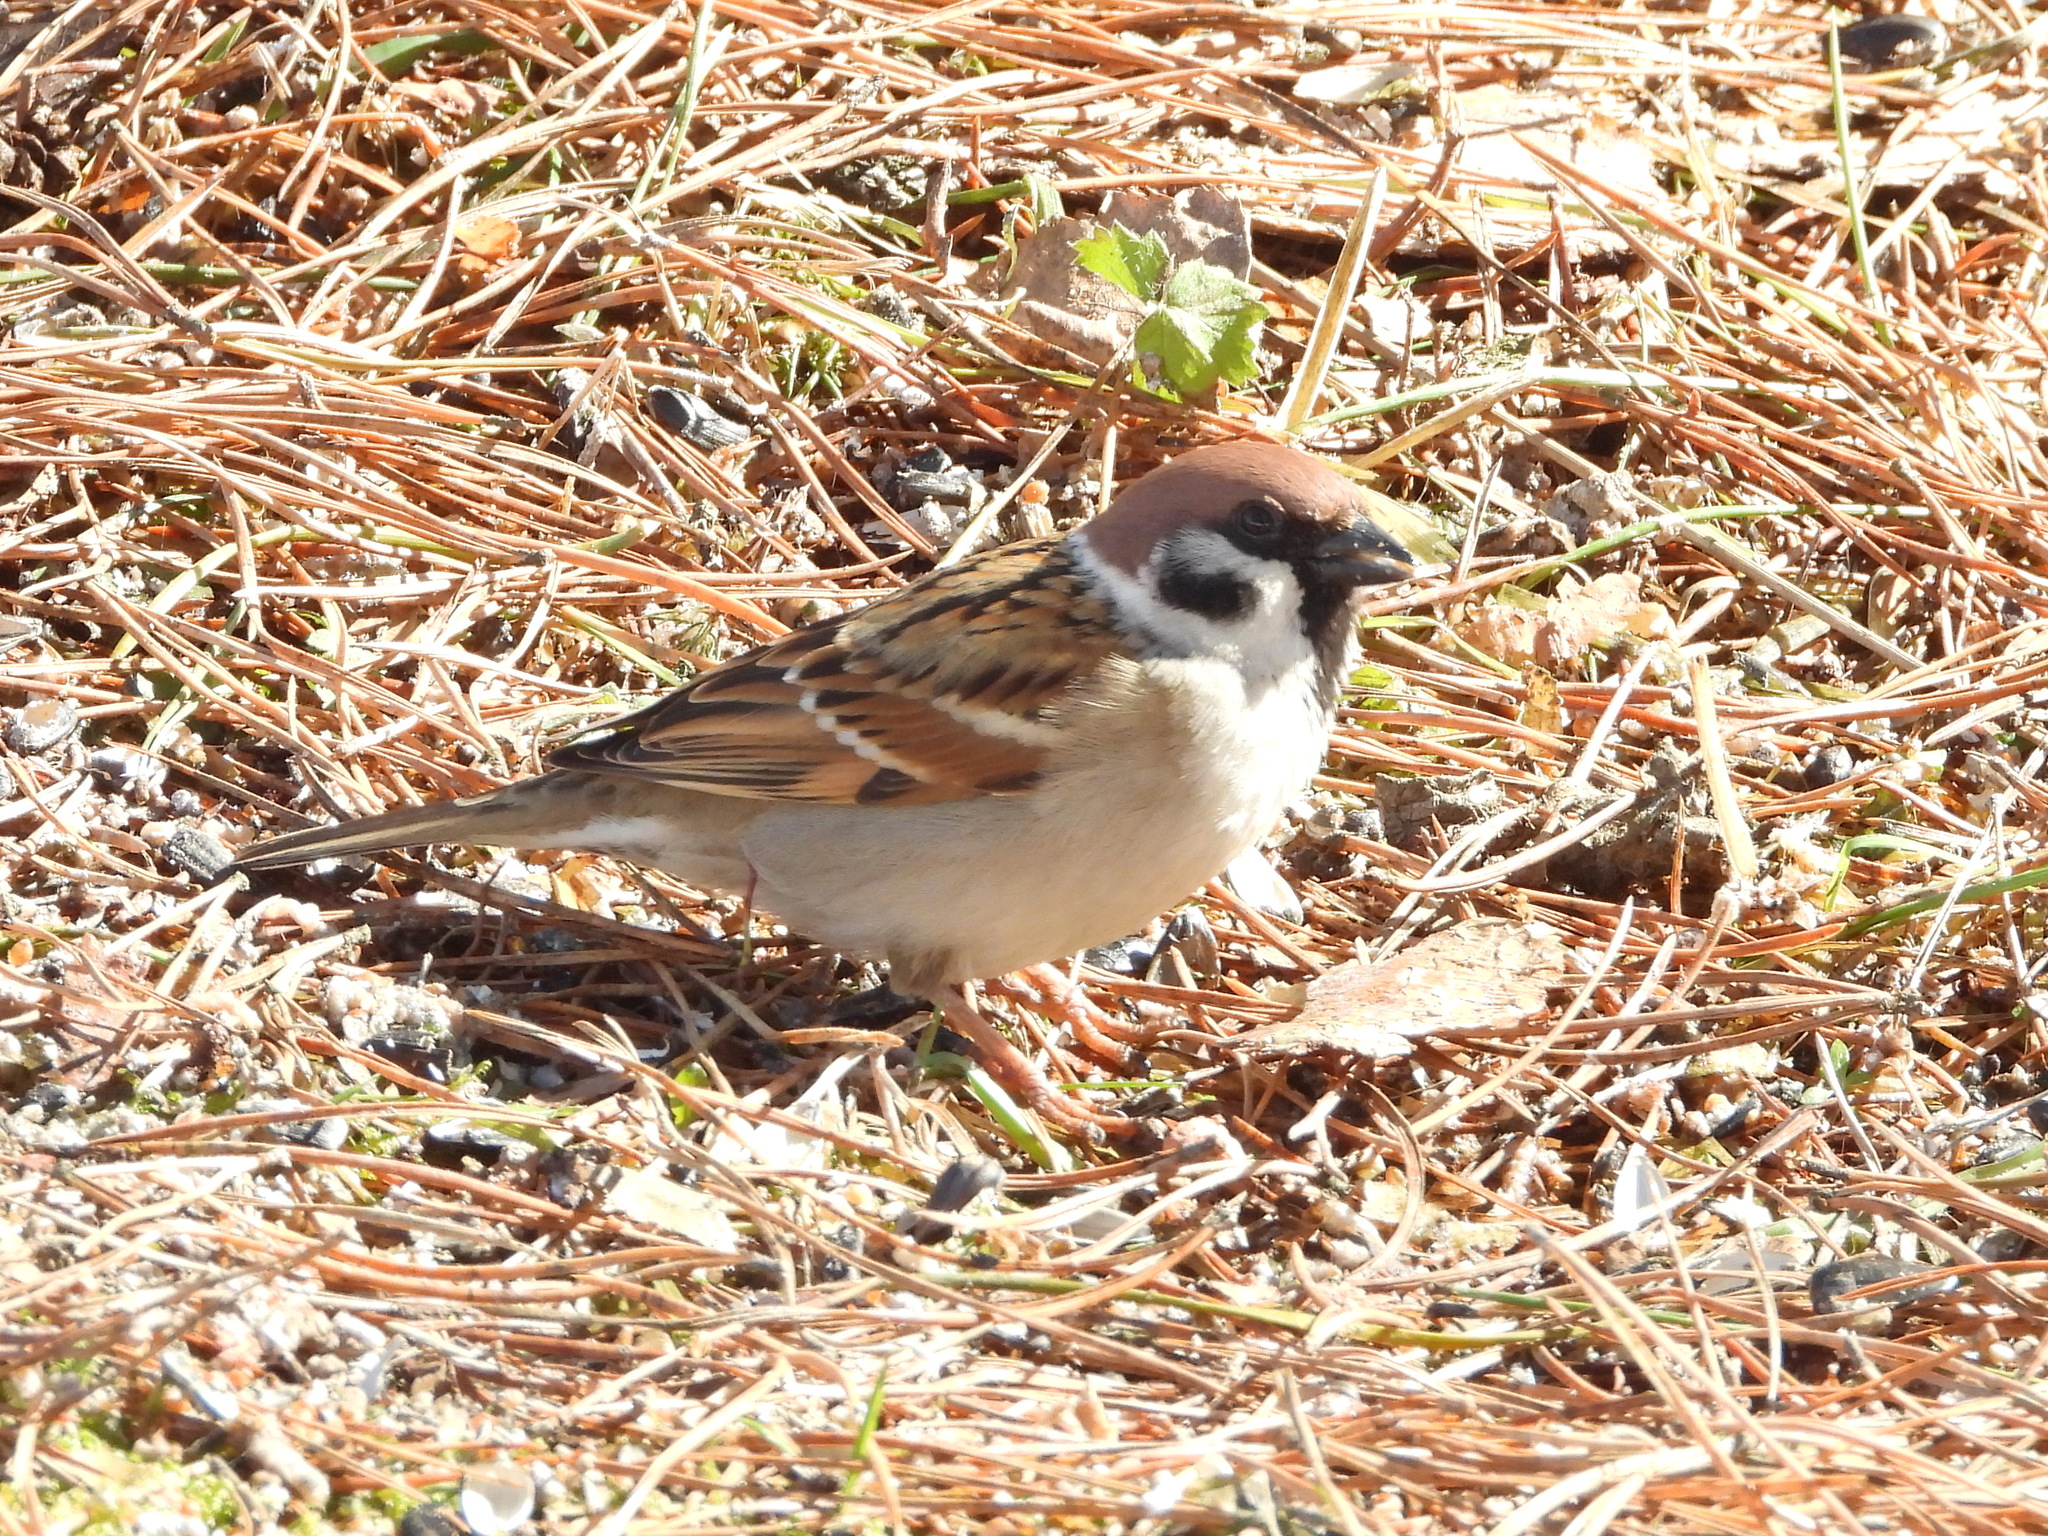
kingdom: Animalia
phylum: Chordata
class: Aves
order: Passeriformes
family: Passeridae
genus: Passer
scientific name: Passer montanus
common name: Eurasian tree sparrow
